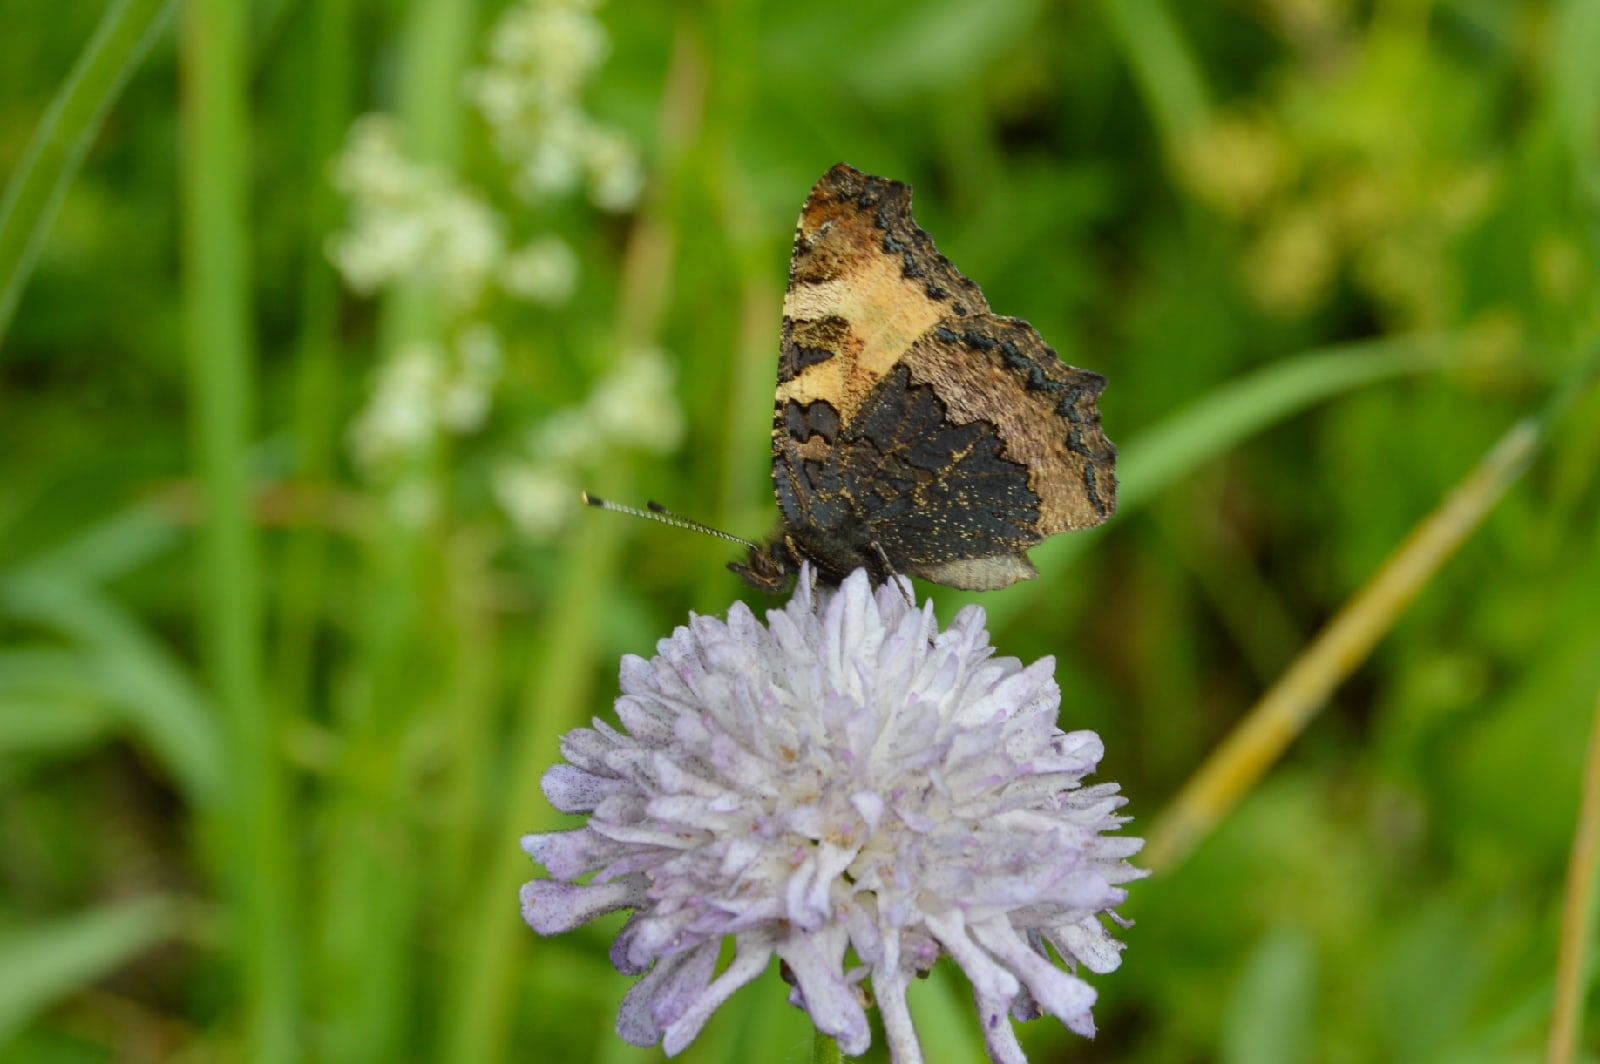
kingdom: Animalia
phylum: Arthropoda
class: Insecta
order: Lepidoptera
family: Nymphalidae
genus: Aglais
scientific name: Aglais urticae
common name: Small tortoiseshell
